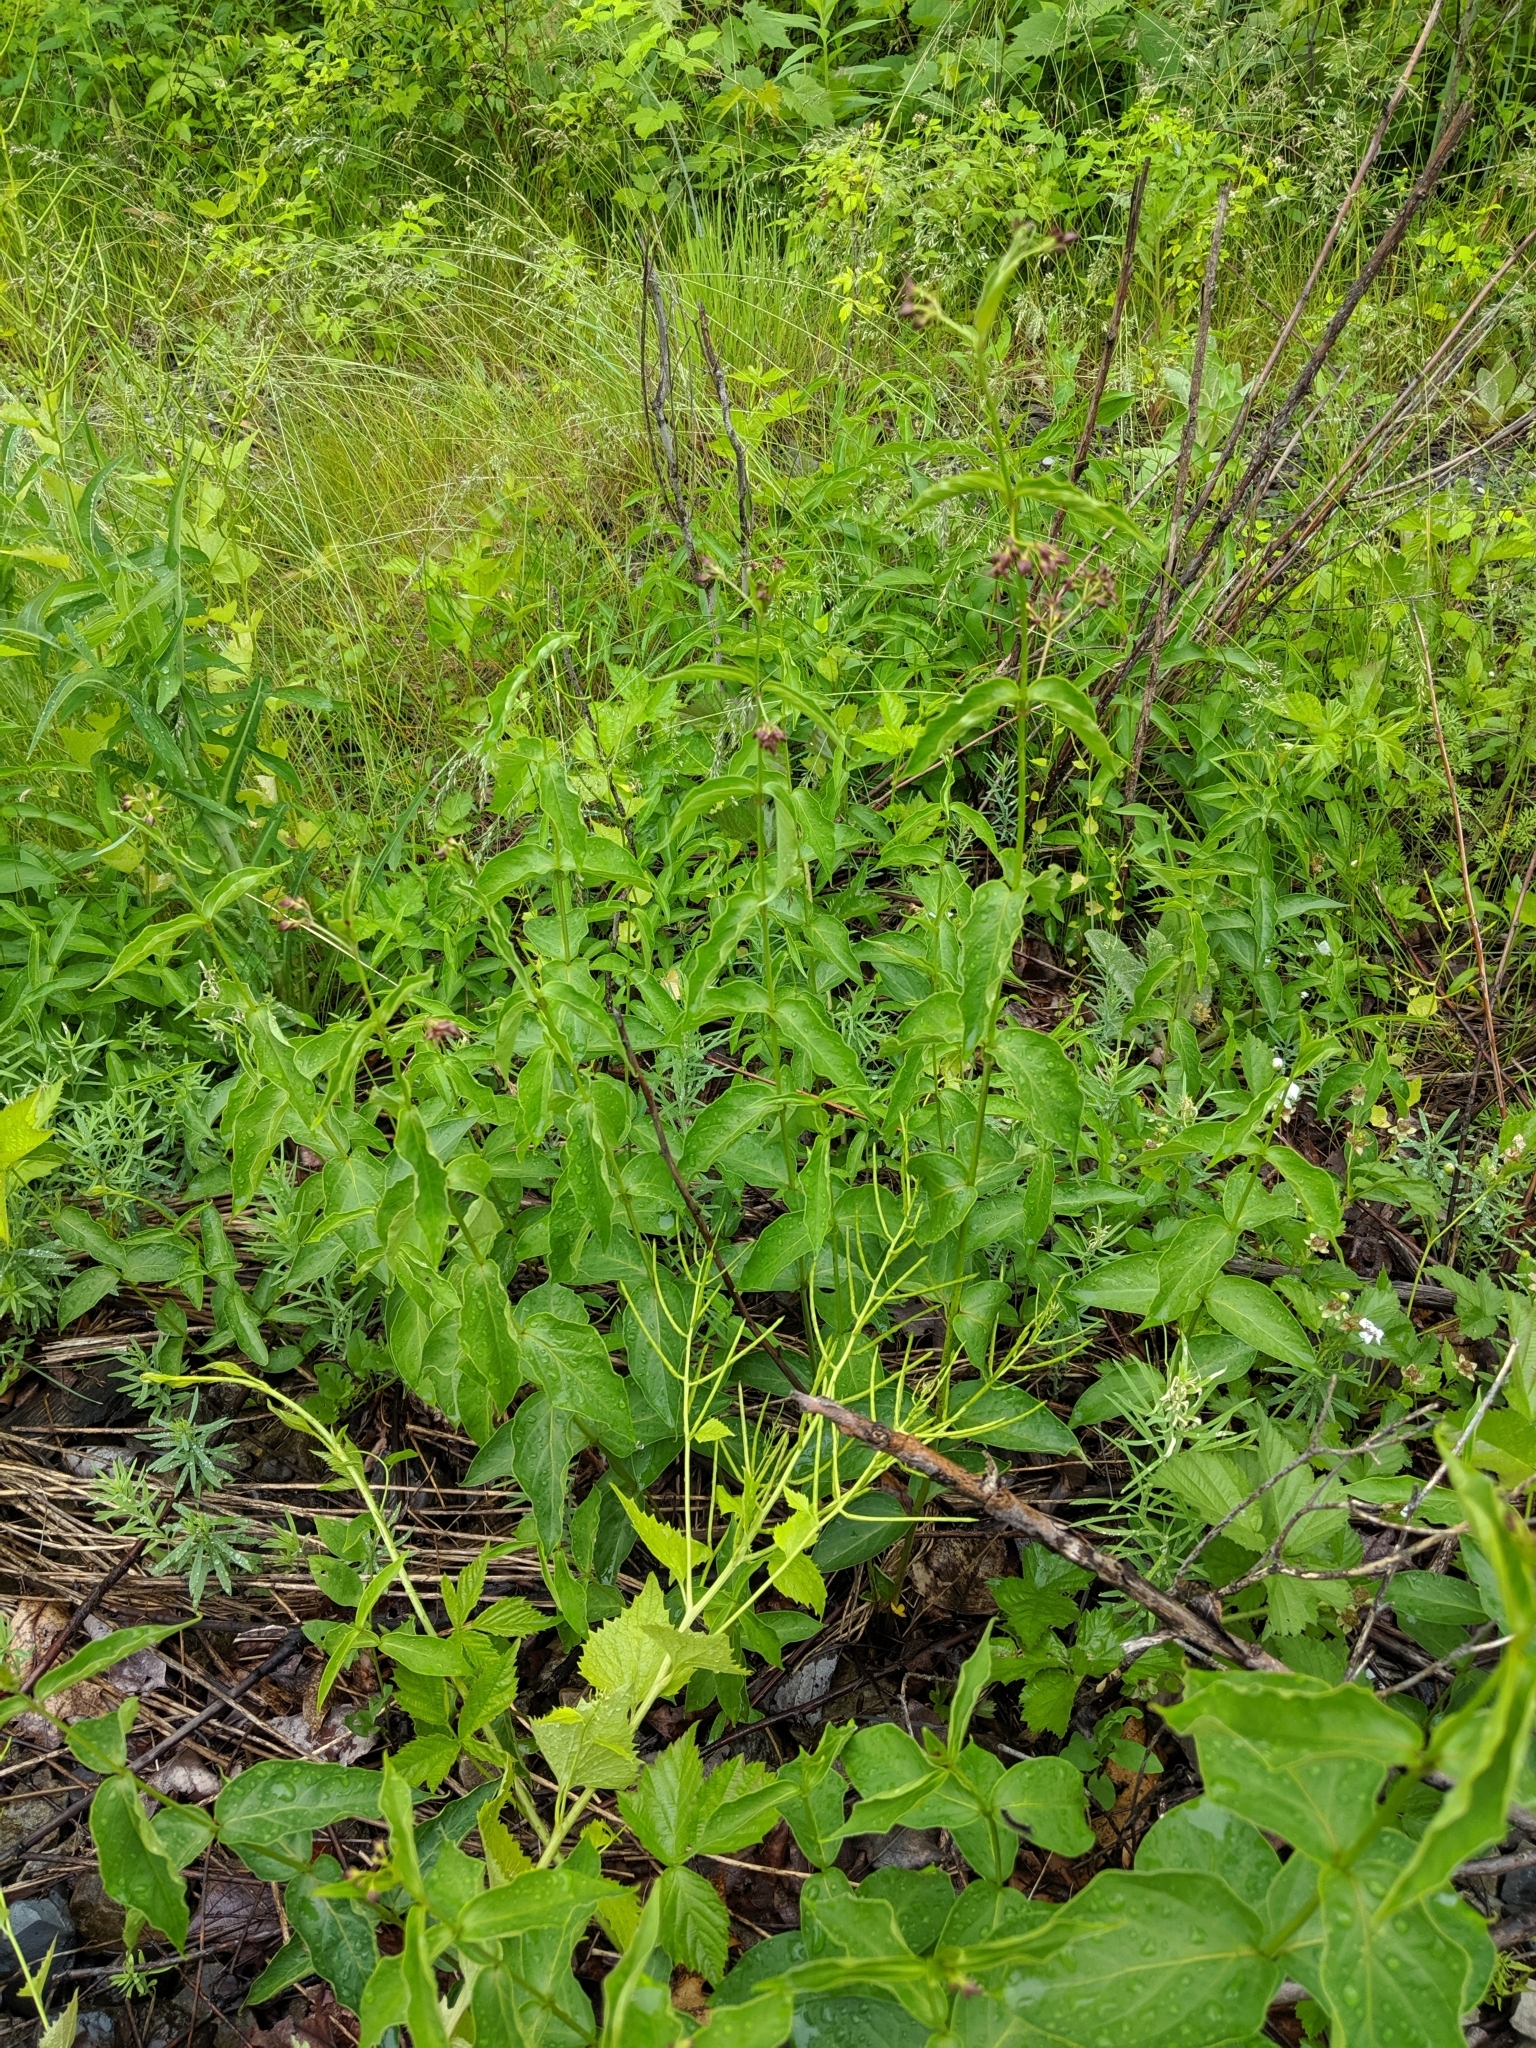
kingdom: Plantae
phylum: Tracheophyta
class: Magnoliopsida
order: Gentianales
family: Apocynaceae
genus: Vincetoxicum
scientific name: Vincetoxicum rossicum
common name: Dog-strangling vine
